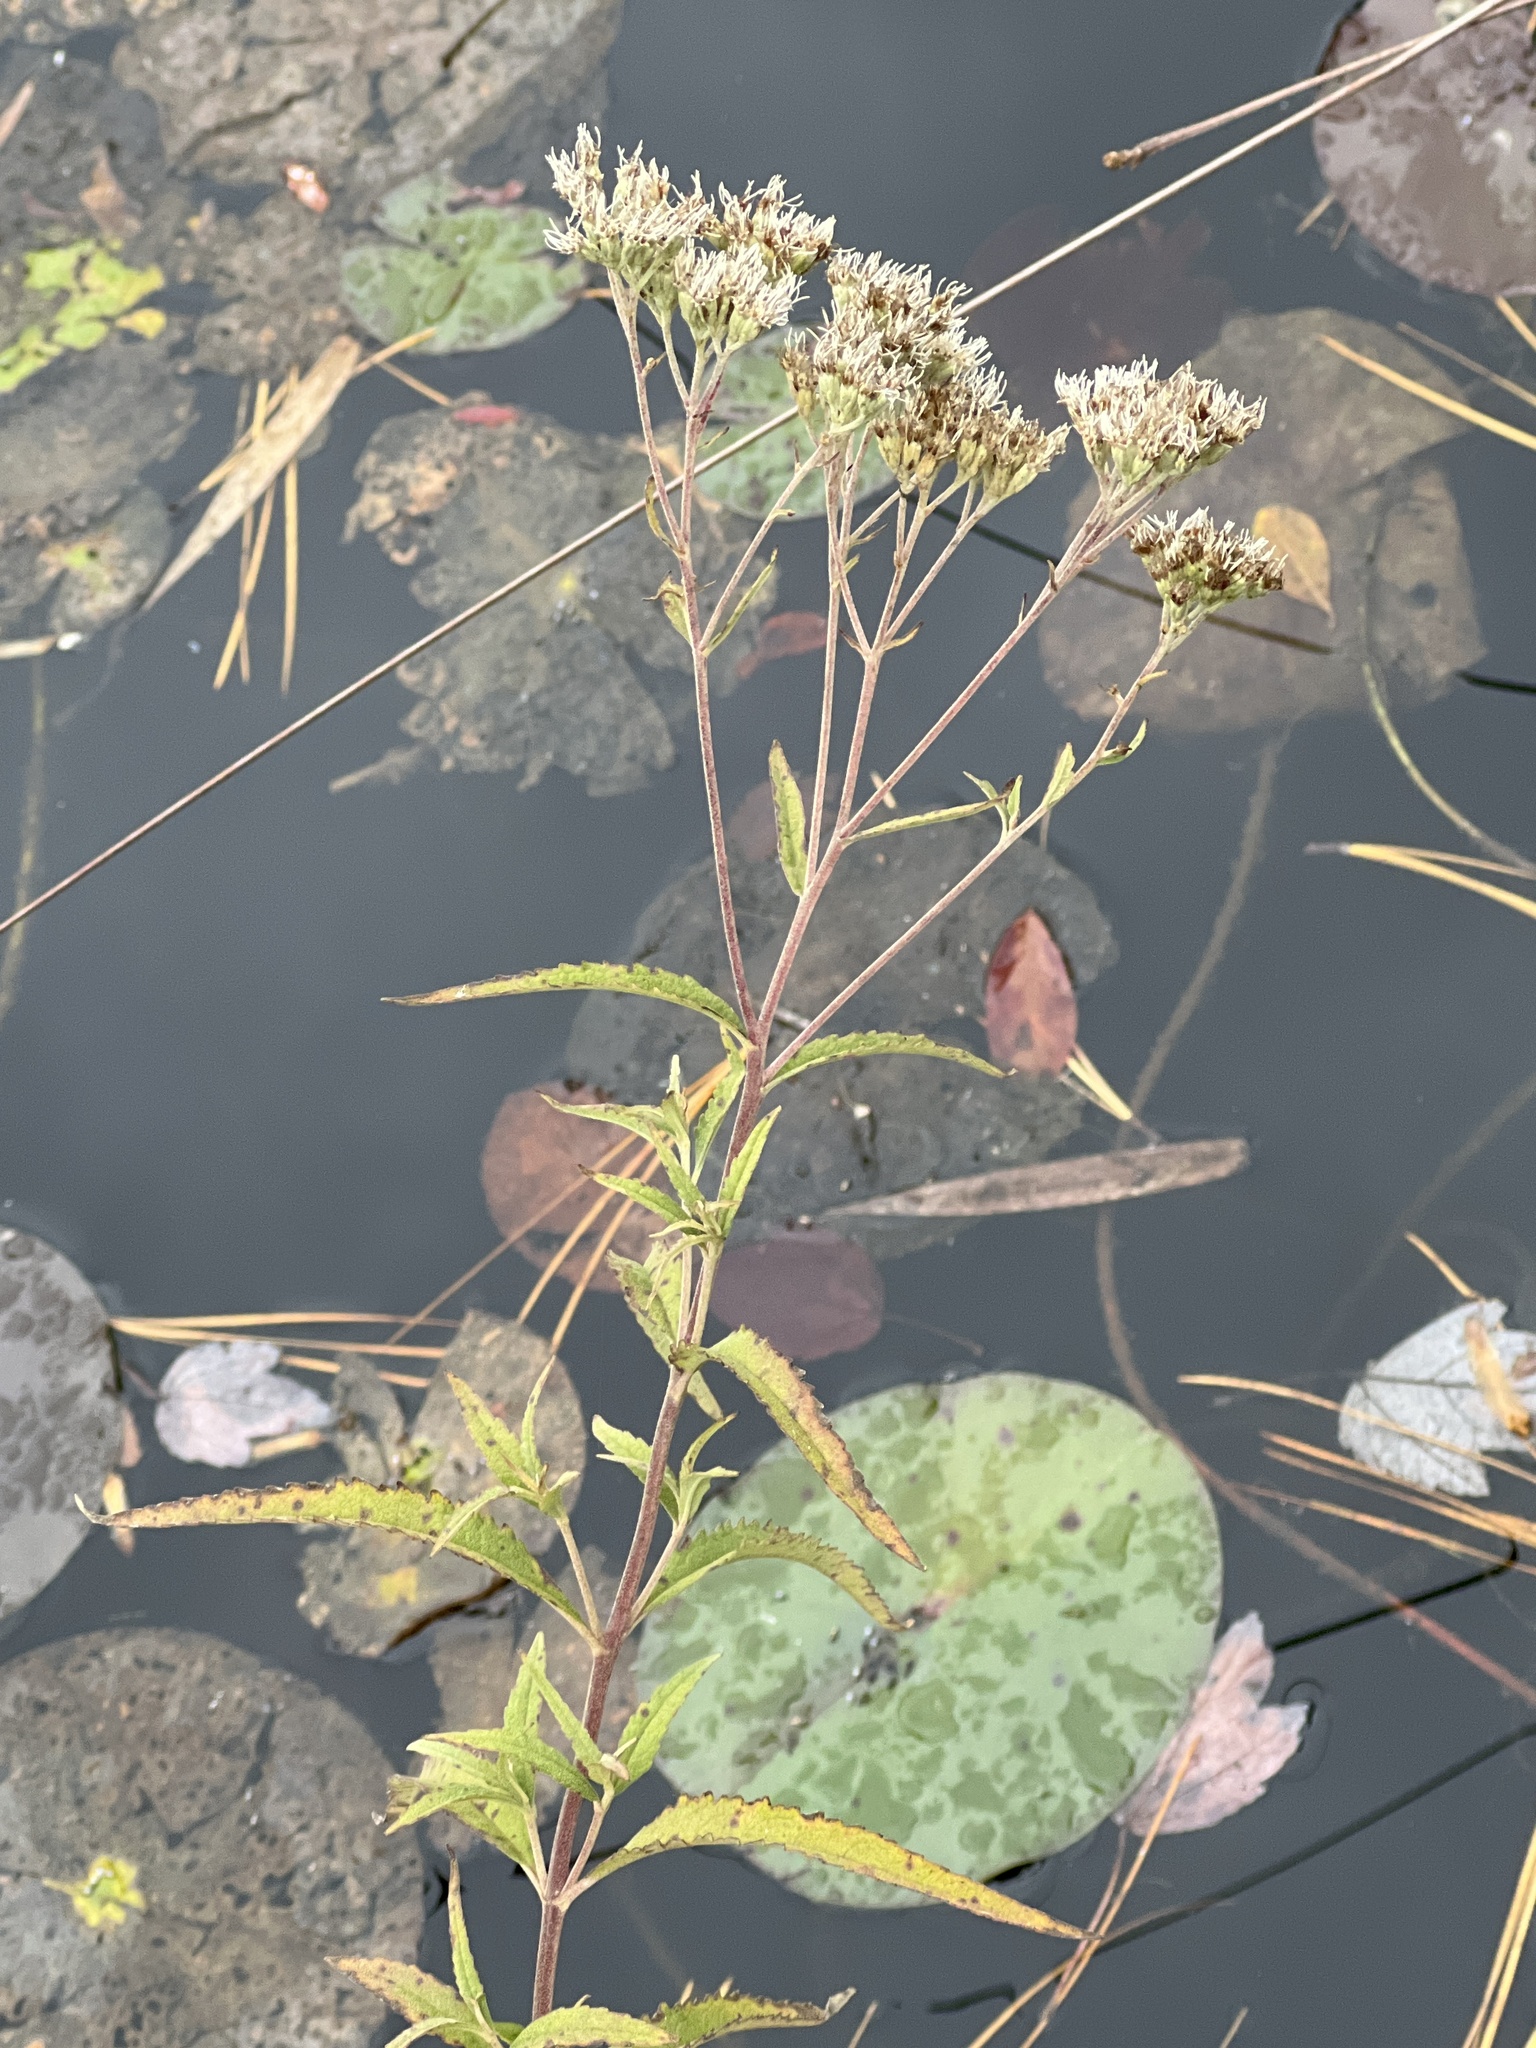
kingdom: Plantae
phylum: Tracheophyta
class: Magnoliopsida
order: Asterales
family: Asteraceae
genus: Eupatorium
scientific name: Eupatorium resinosum
